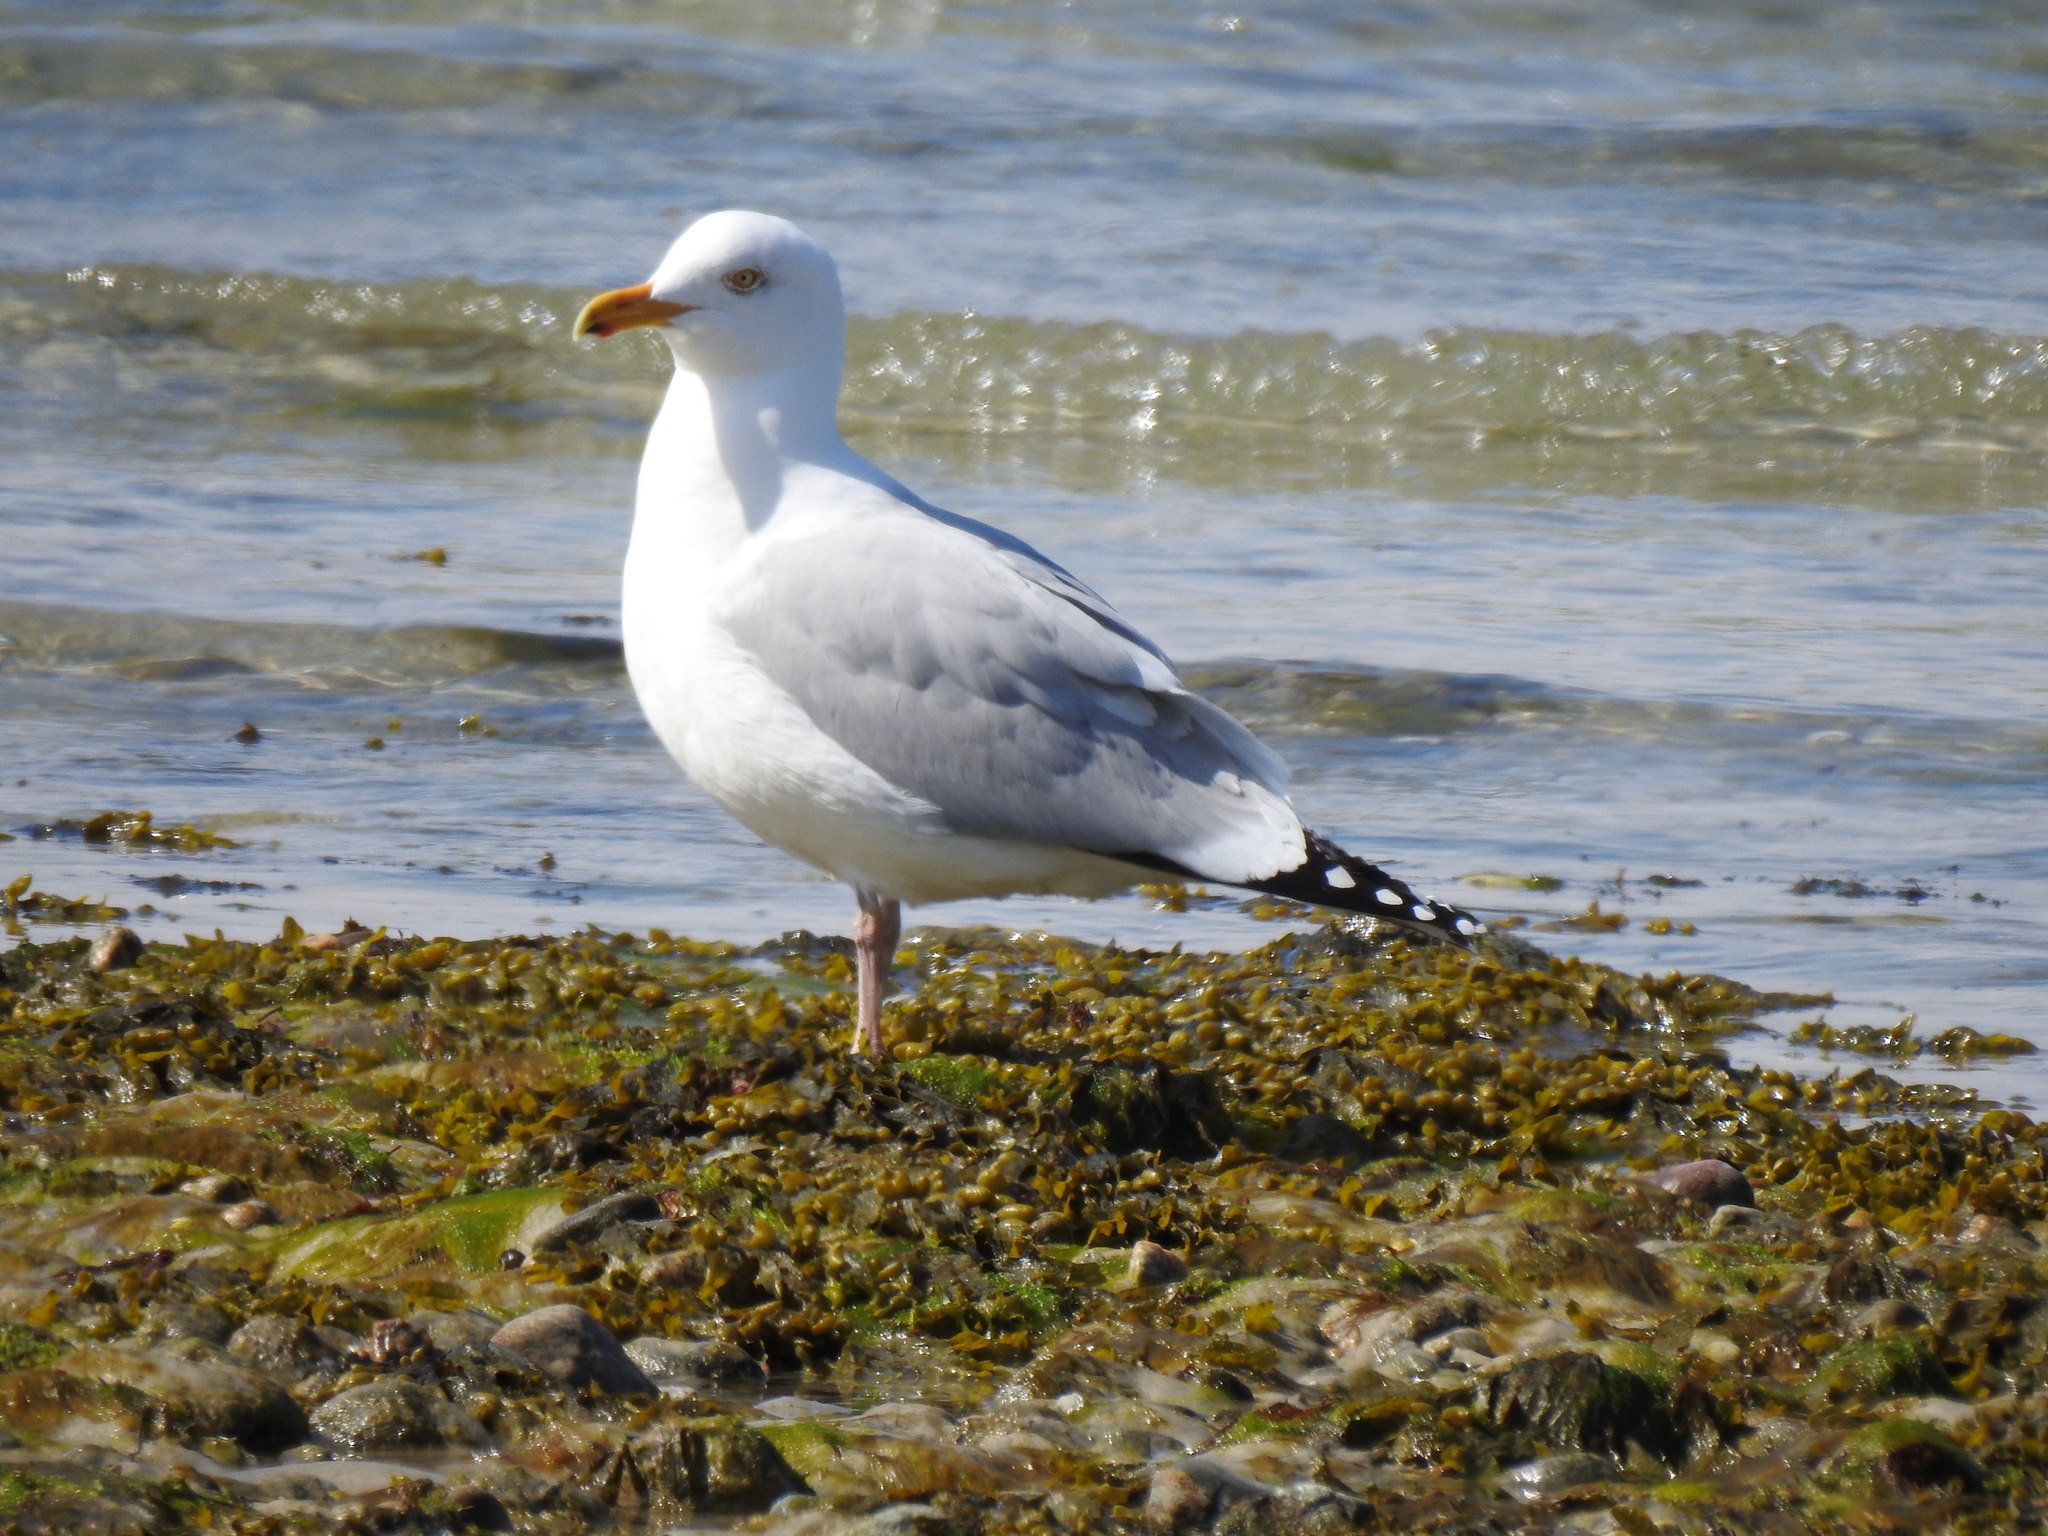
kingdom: Animalia
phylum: Chordata
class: Aves
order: Charadriiformes
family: Laridae
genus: Larus
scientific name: Larus argentatus
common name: Herring gull
